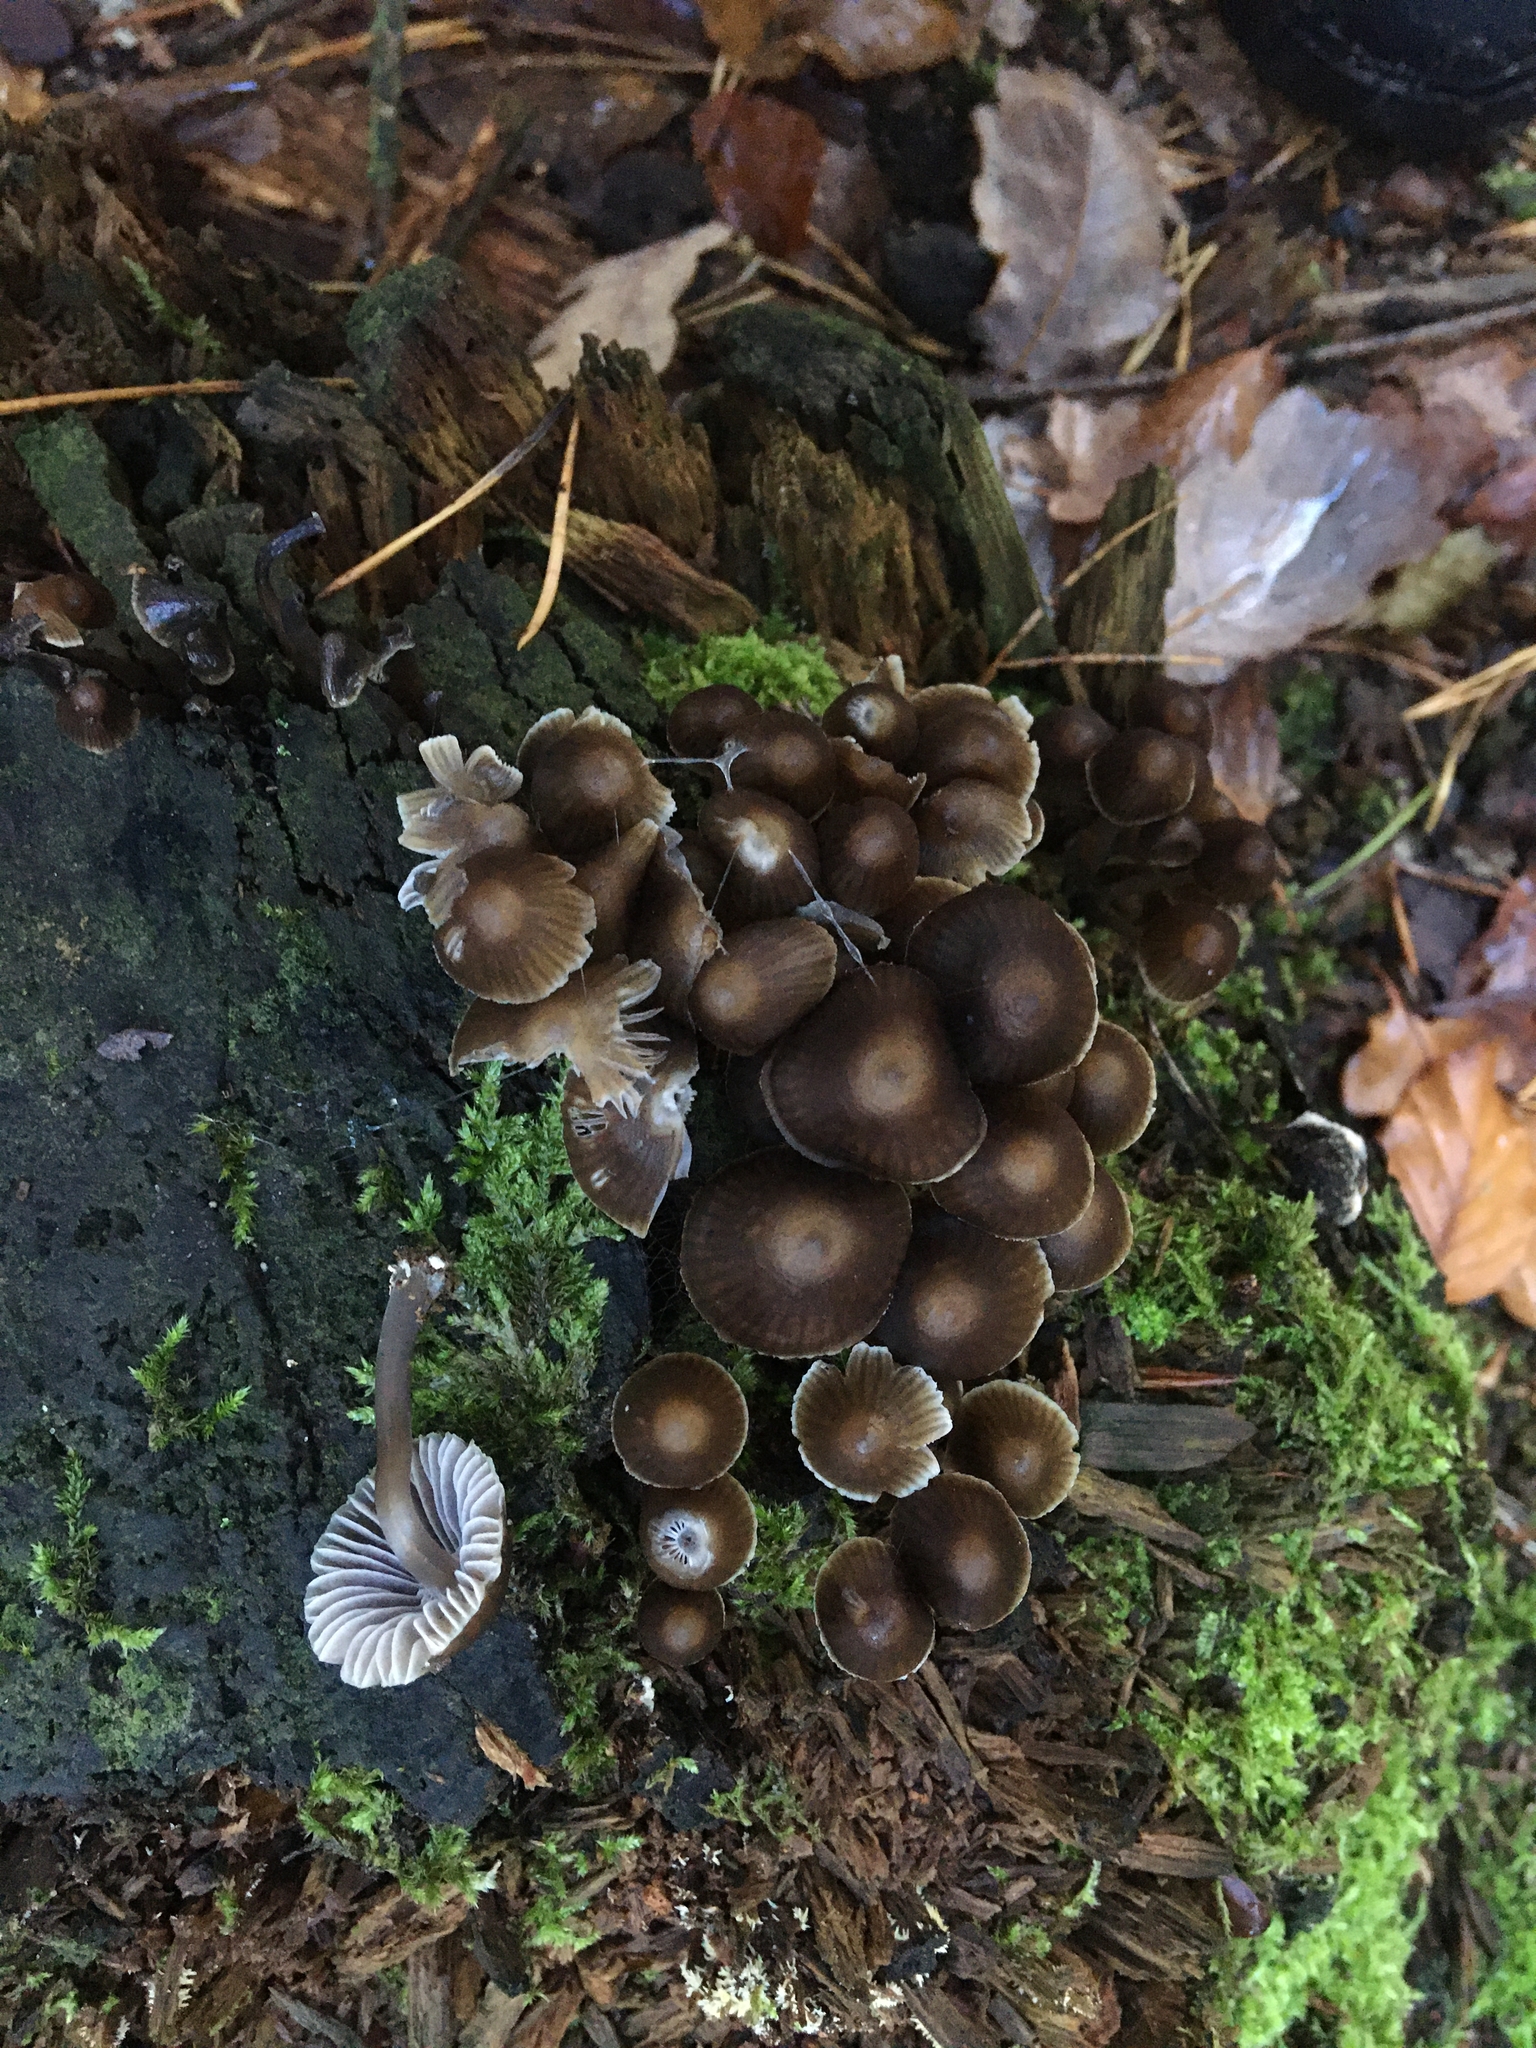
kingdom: Fungi
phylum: Basidiomycota
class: Agaricomycetes
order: Agaricales
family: Mycenaceae
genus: Mycena
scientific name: Mycena stipata
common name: Clustered pine bonnet
